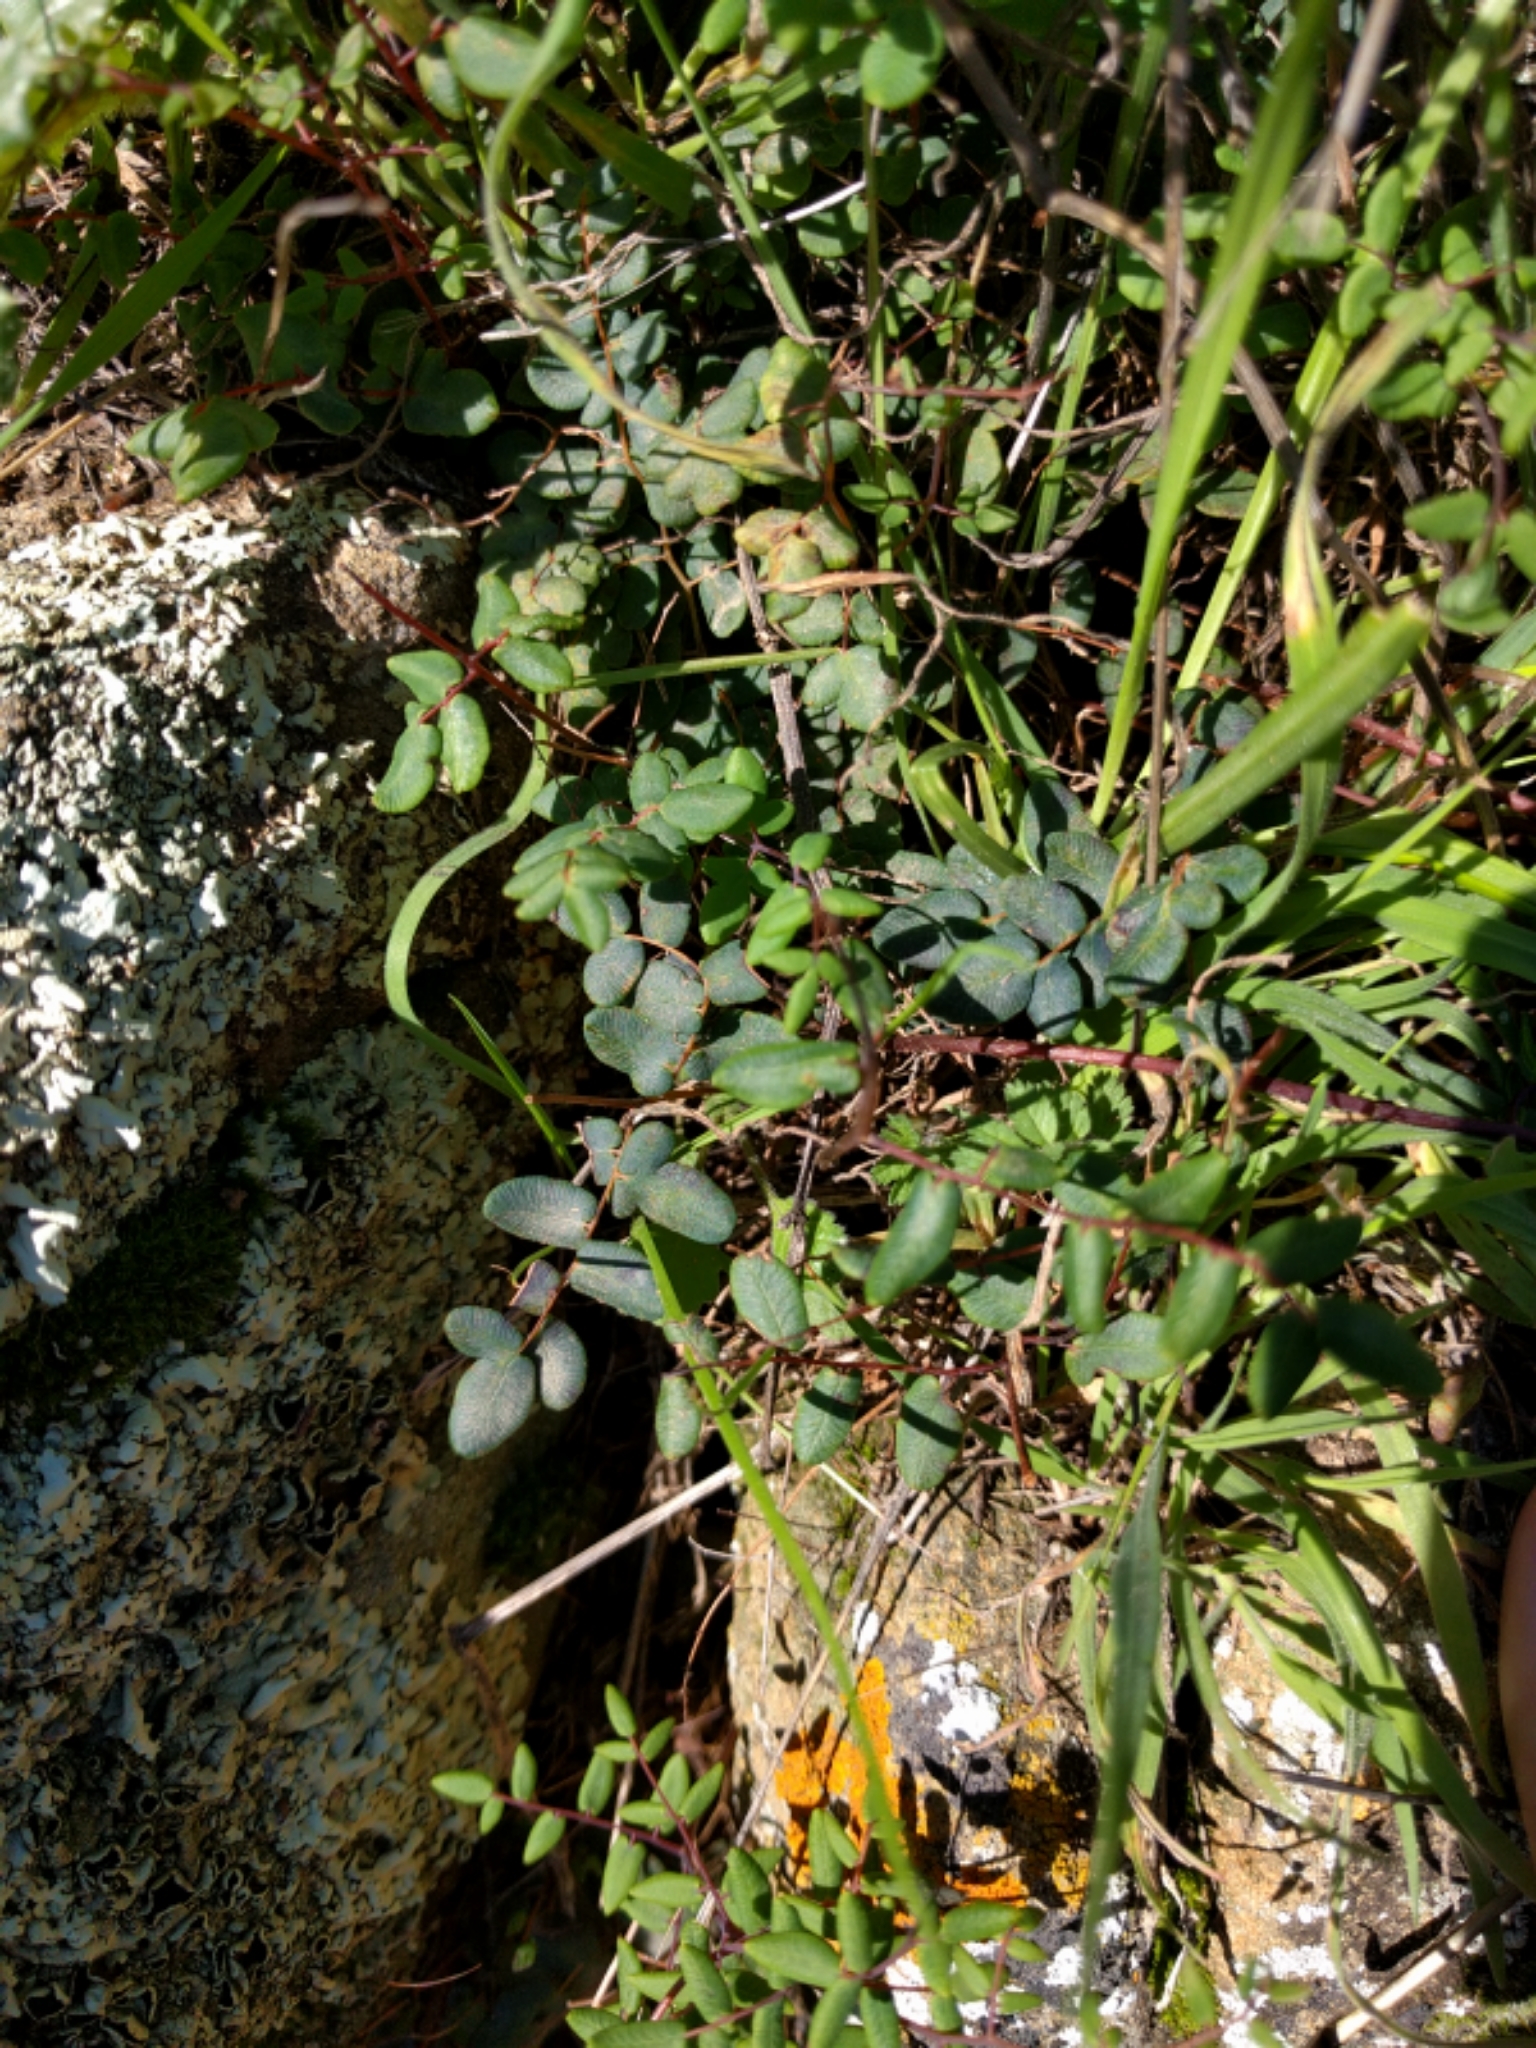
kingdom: Plantae
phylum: Tracheophyta
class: Polypodiopsida
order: Polypodiales
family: Pteridaceae
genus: Pellaea
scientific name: Pellaea andromedifolia
